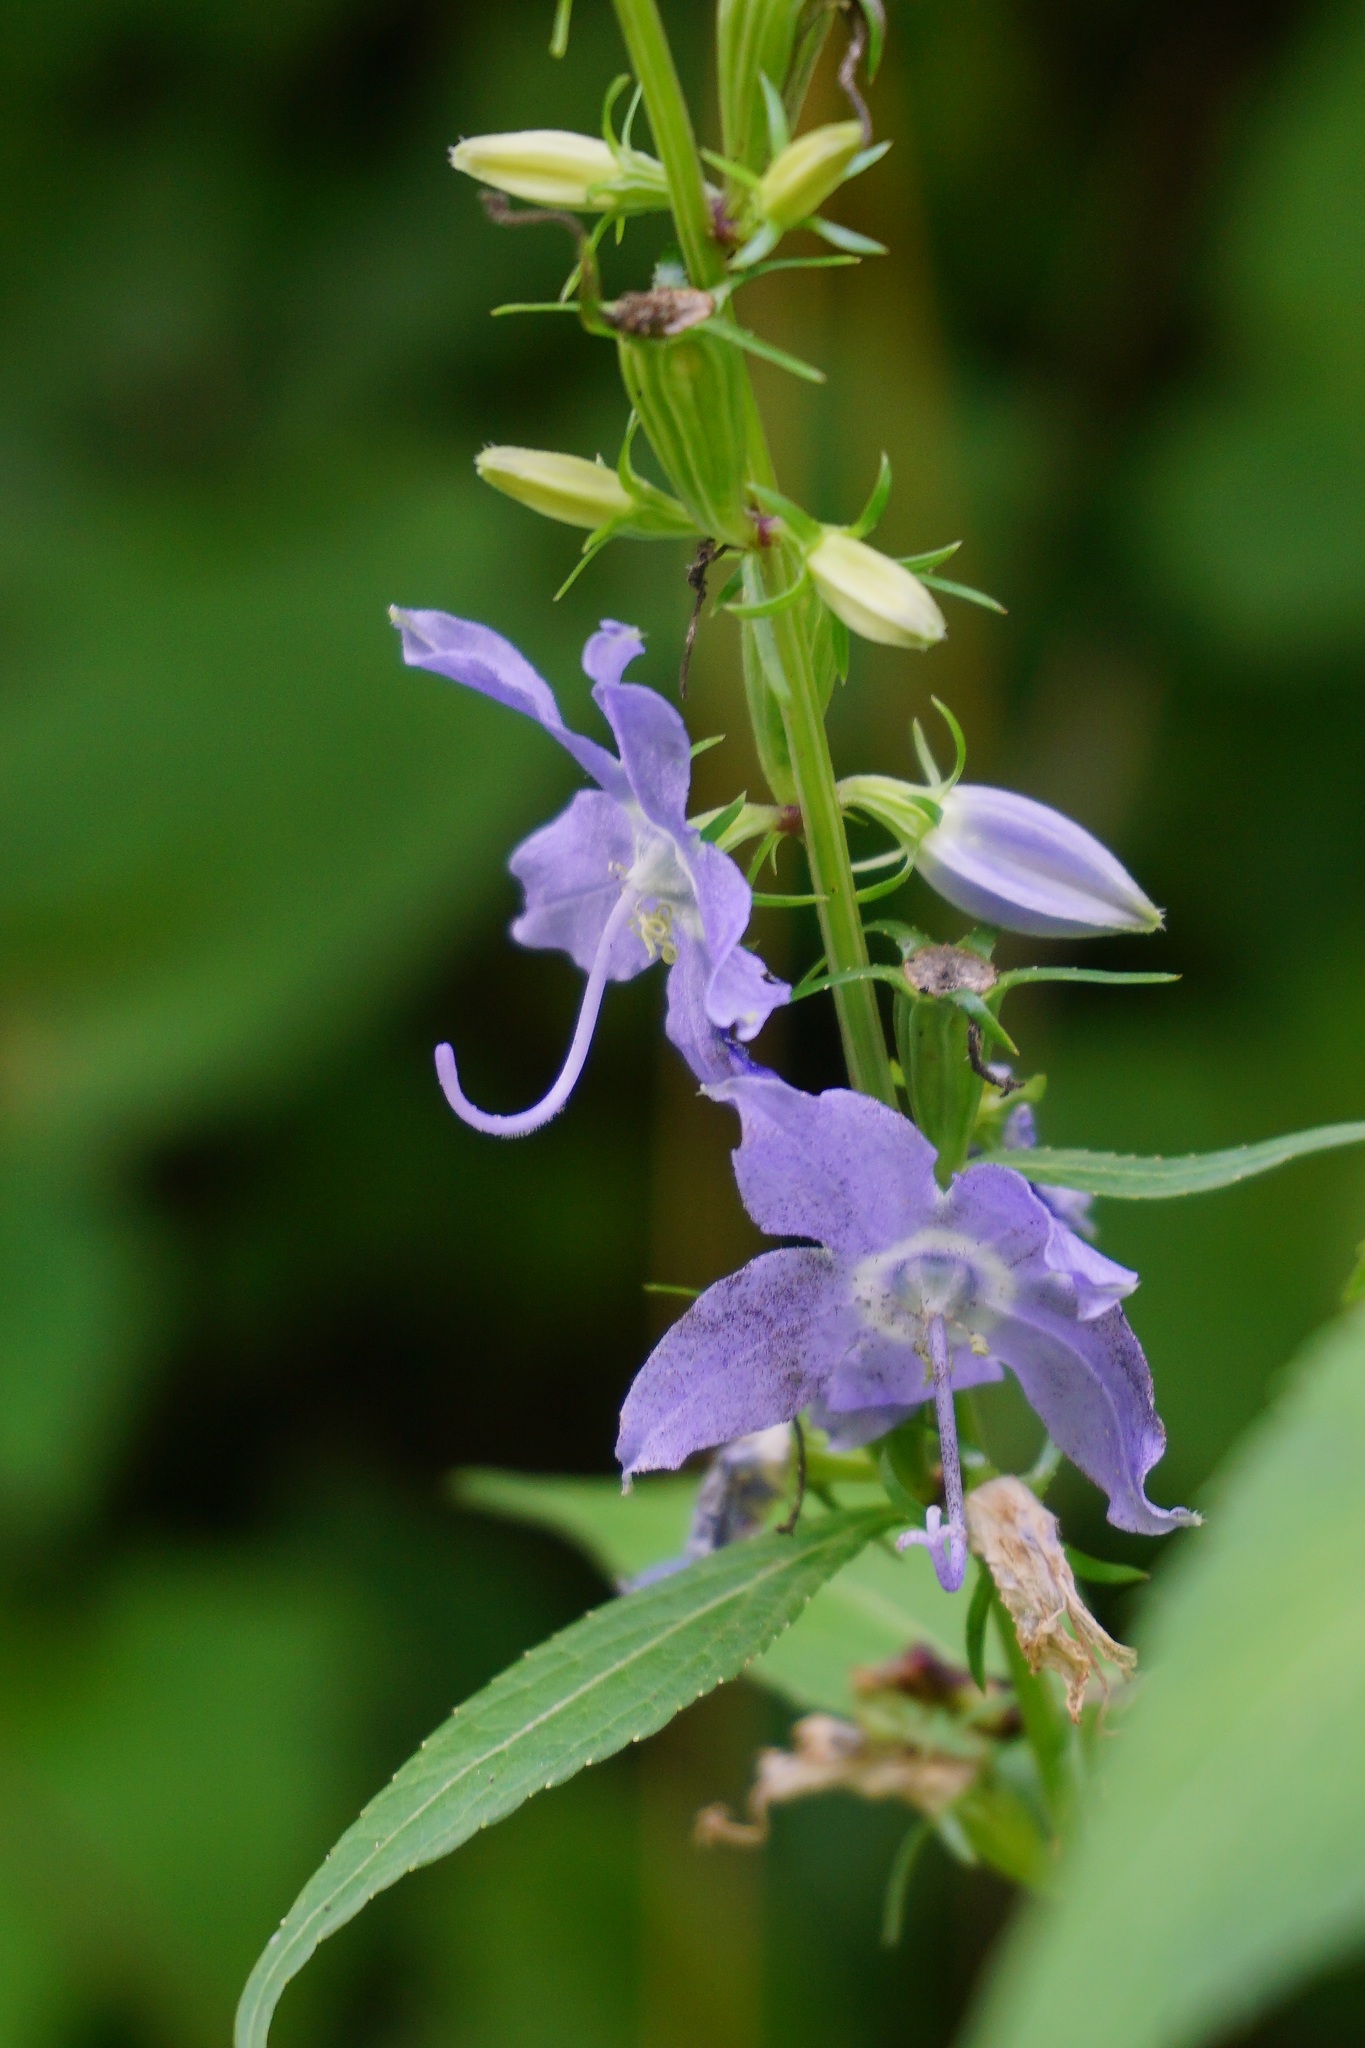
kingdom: Plantae
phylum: Tracheophyta
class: Magnoliopsida
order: Asterales
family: Campanulaceae
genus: Campanulastrum
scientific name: Campanulastrum americanum
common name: American bellflower
